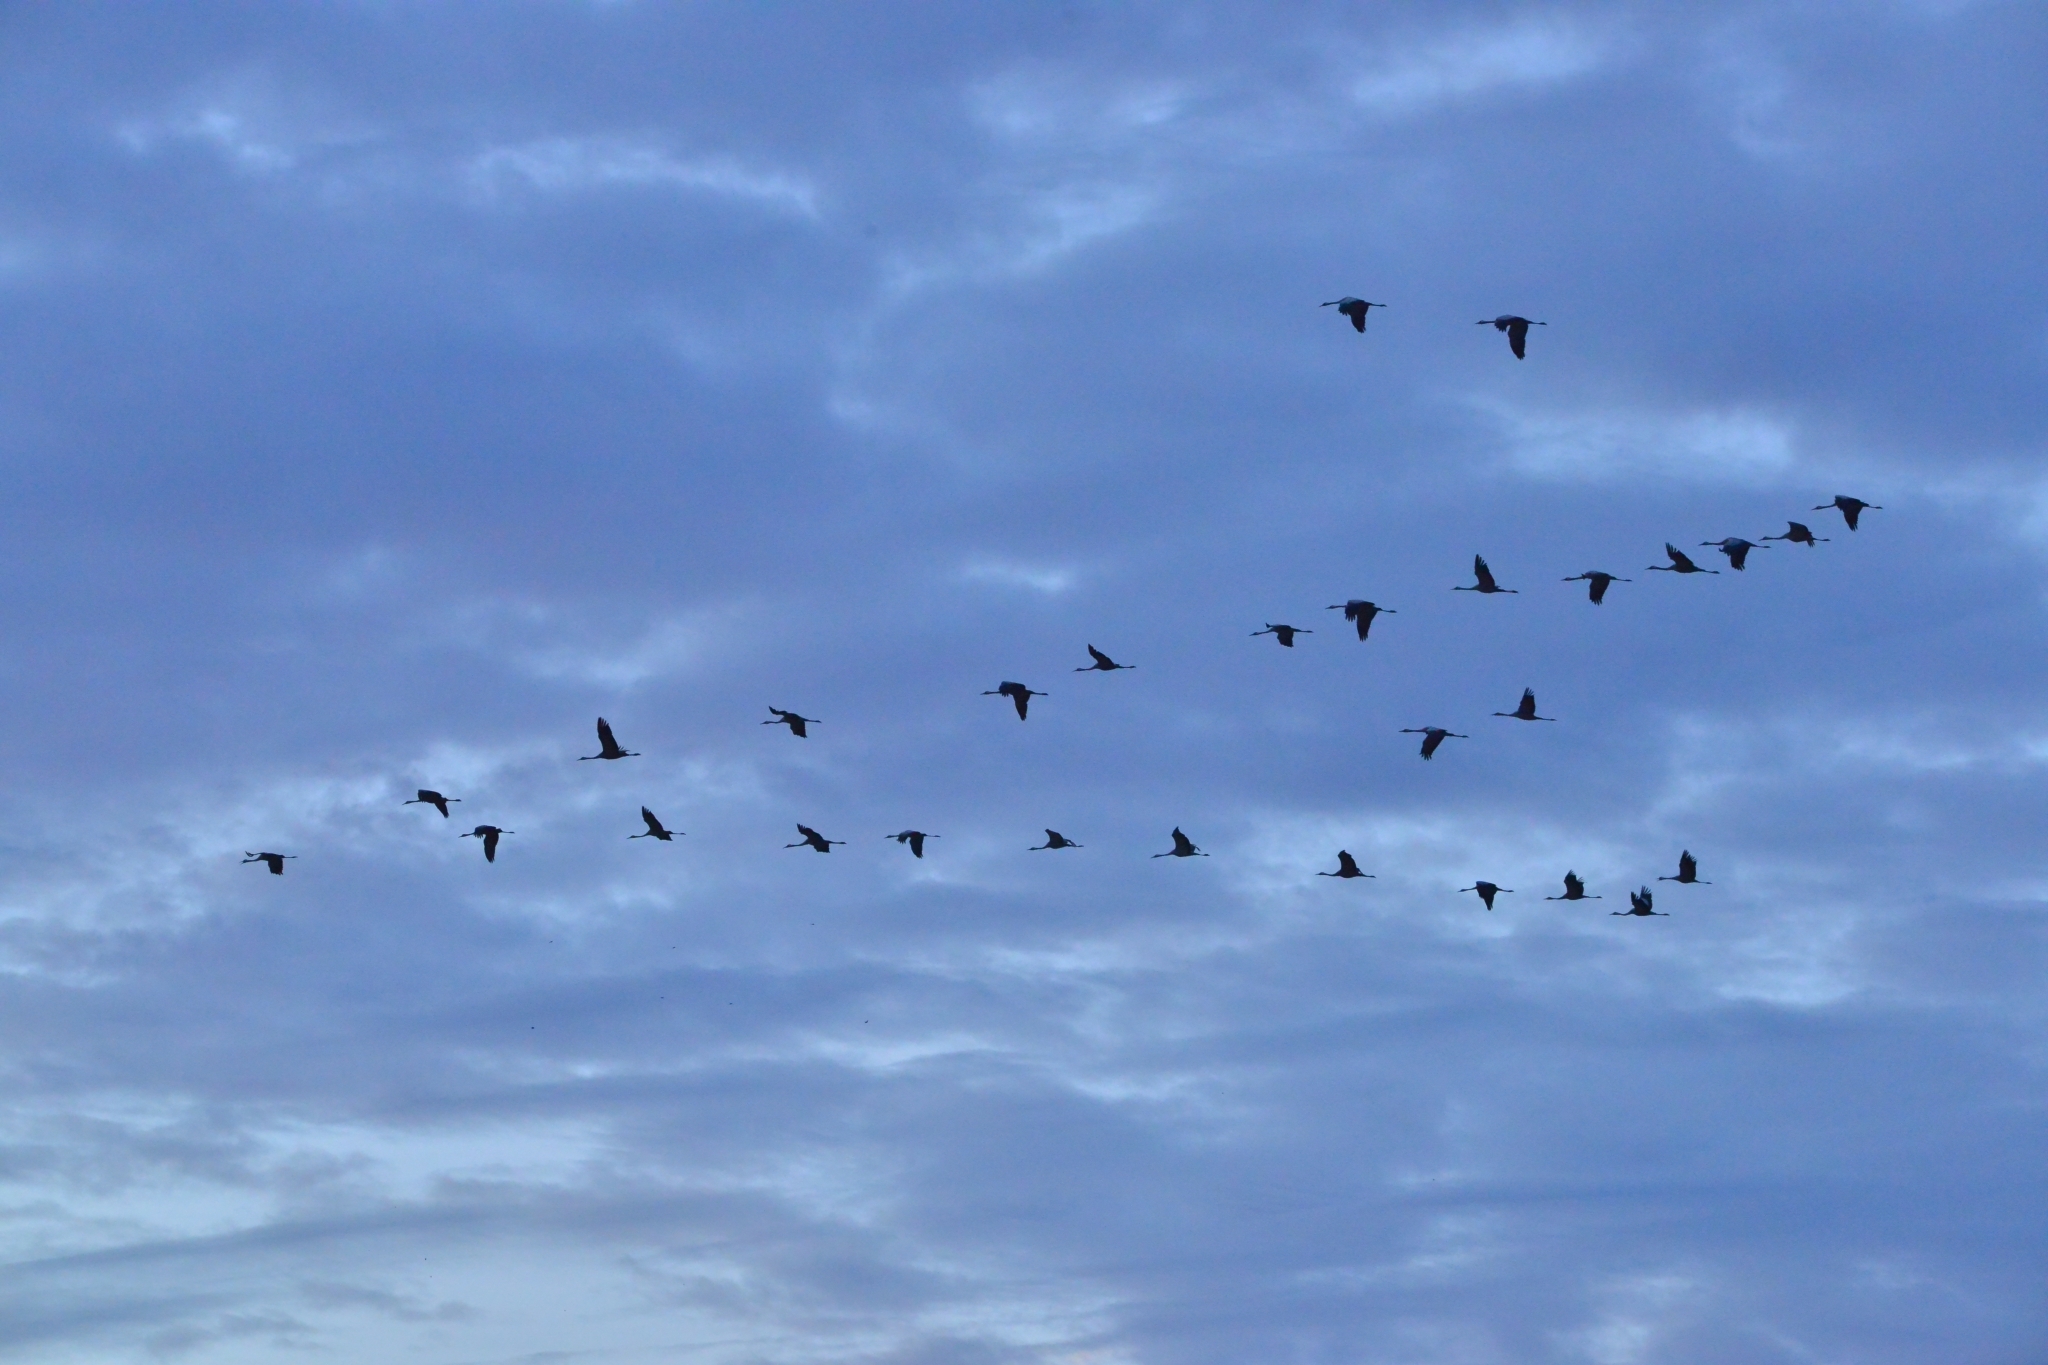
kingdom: Animalia
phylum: Chordata
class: Aves
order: Gruiformes
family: Gruidae
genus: Grus
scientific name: Grus grus
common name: Common crane
